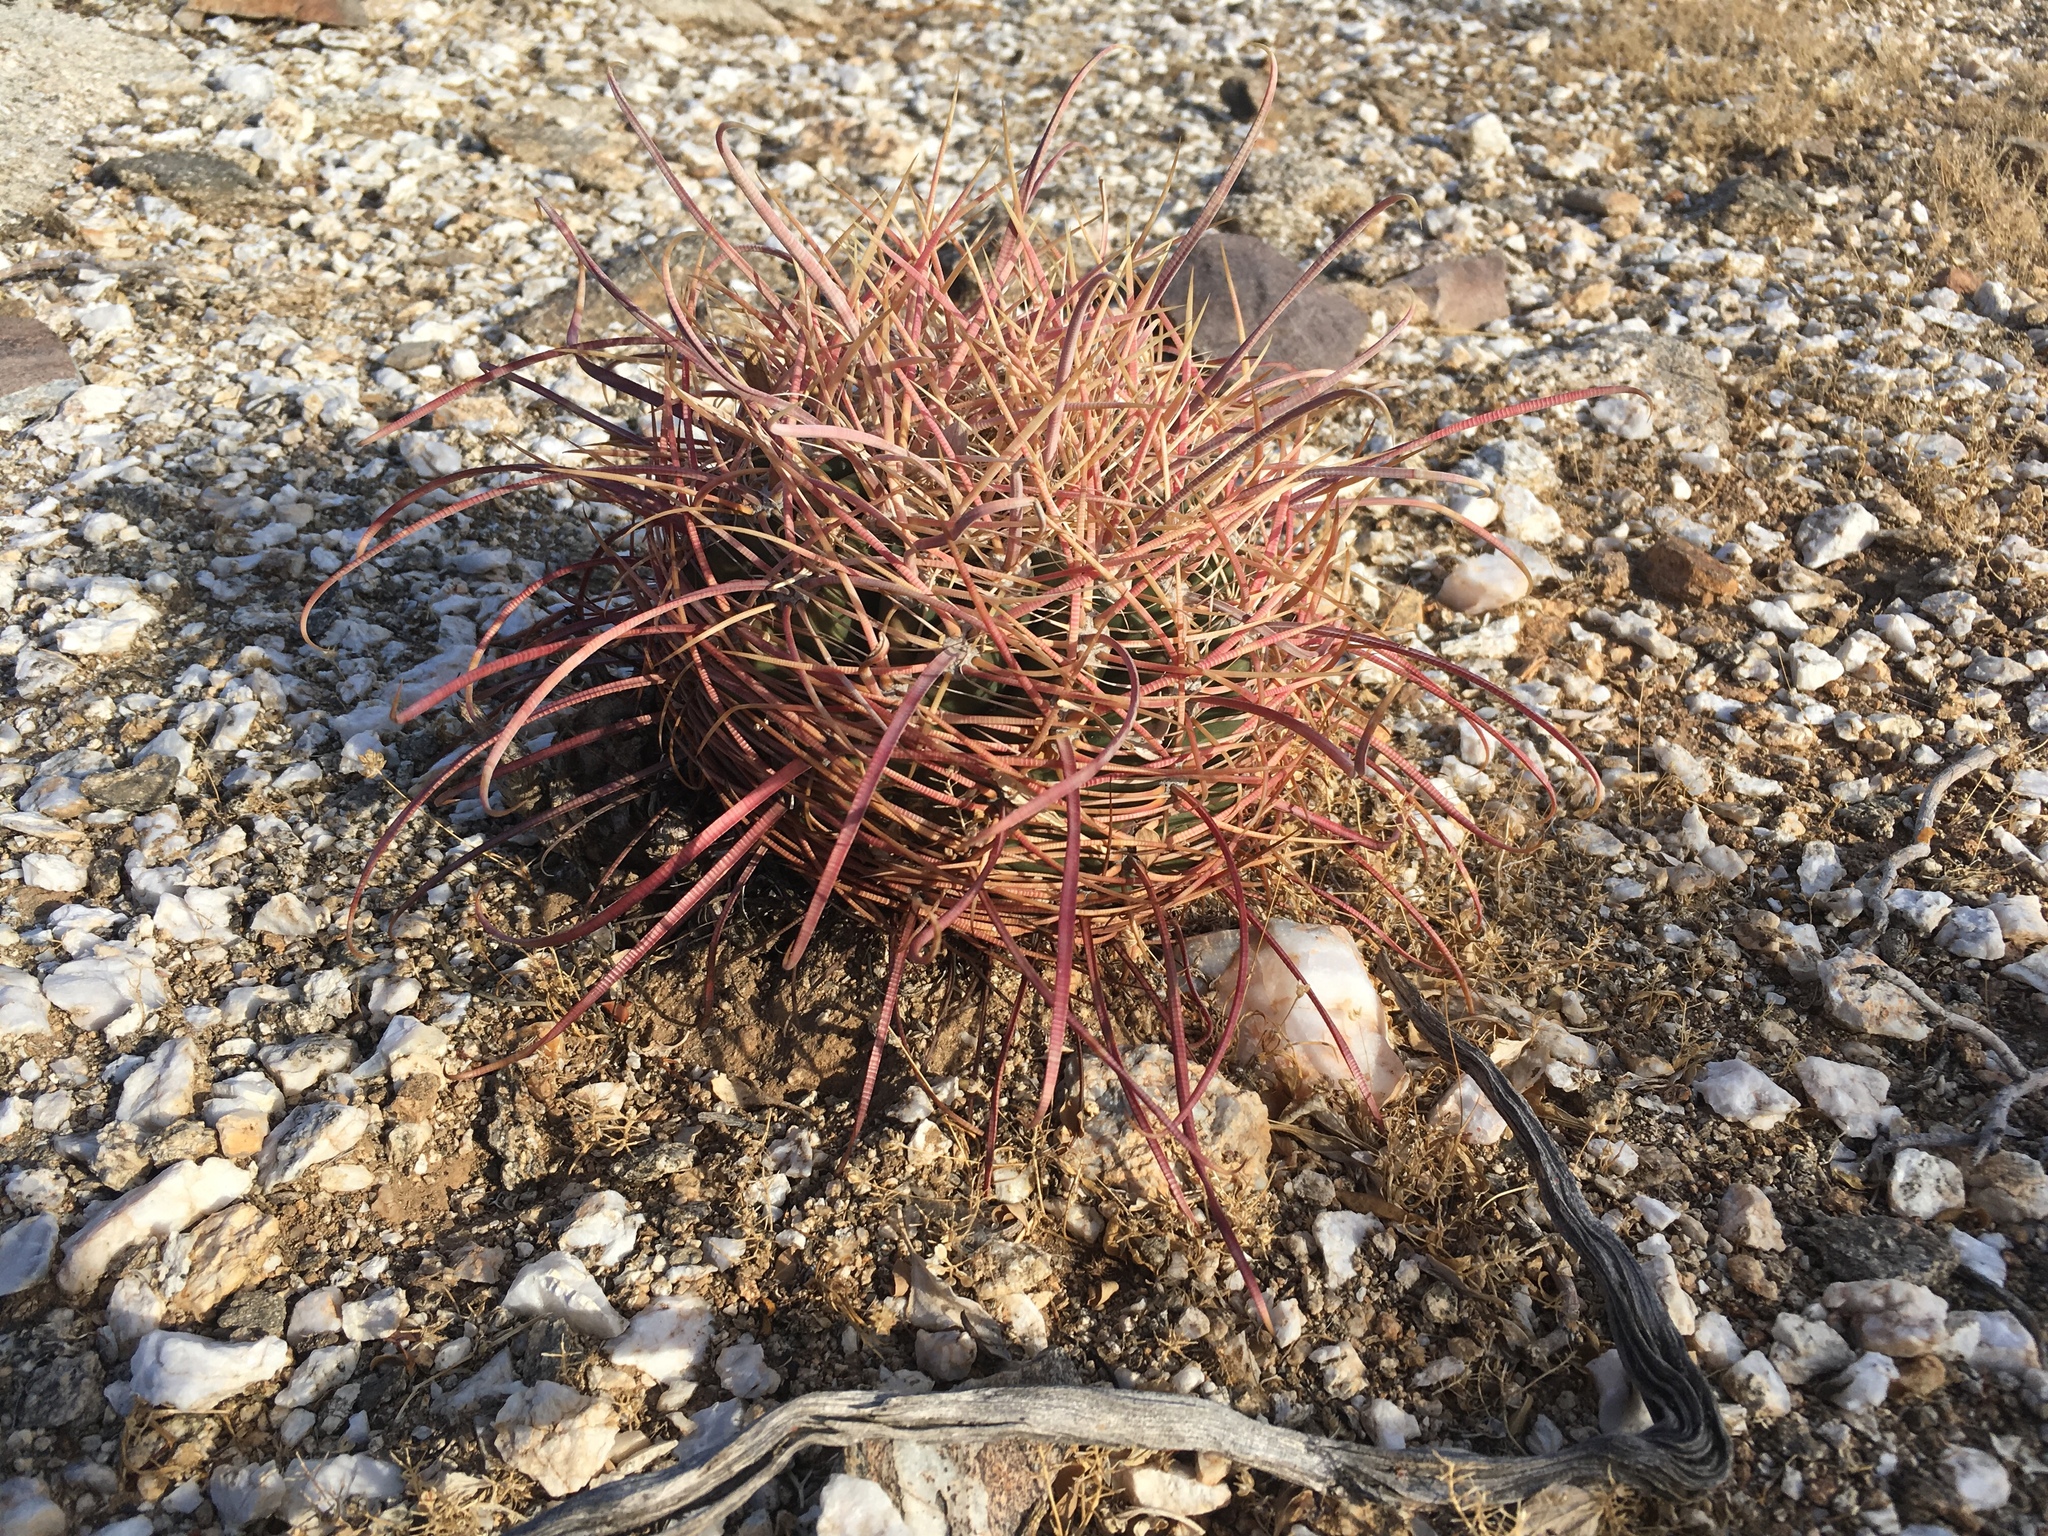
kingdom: Plantae
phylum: Tracheophyta
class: Magnoliopsida
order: Caryophyllales
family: Cactaceae
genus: Ferocactus
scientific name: Ferocactus cylindraceus
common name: California barrel cactus
